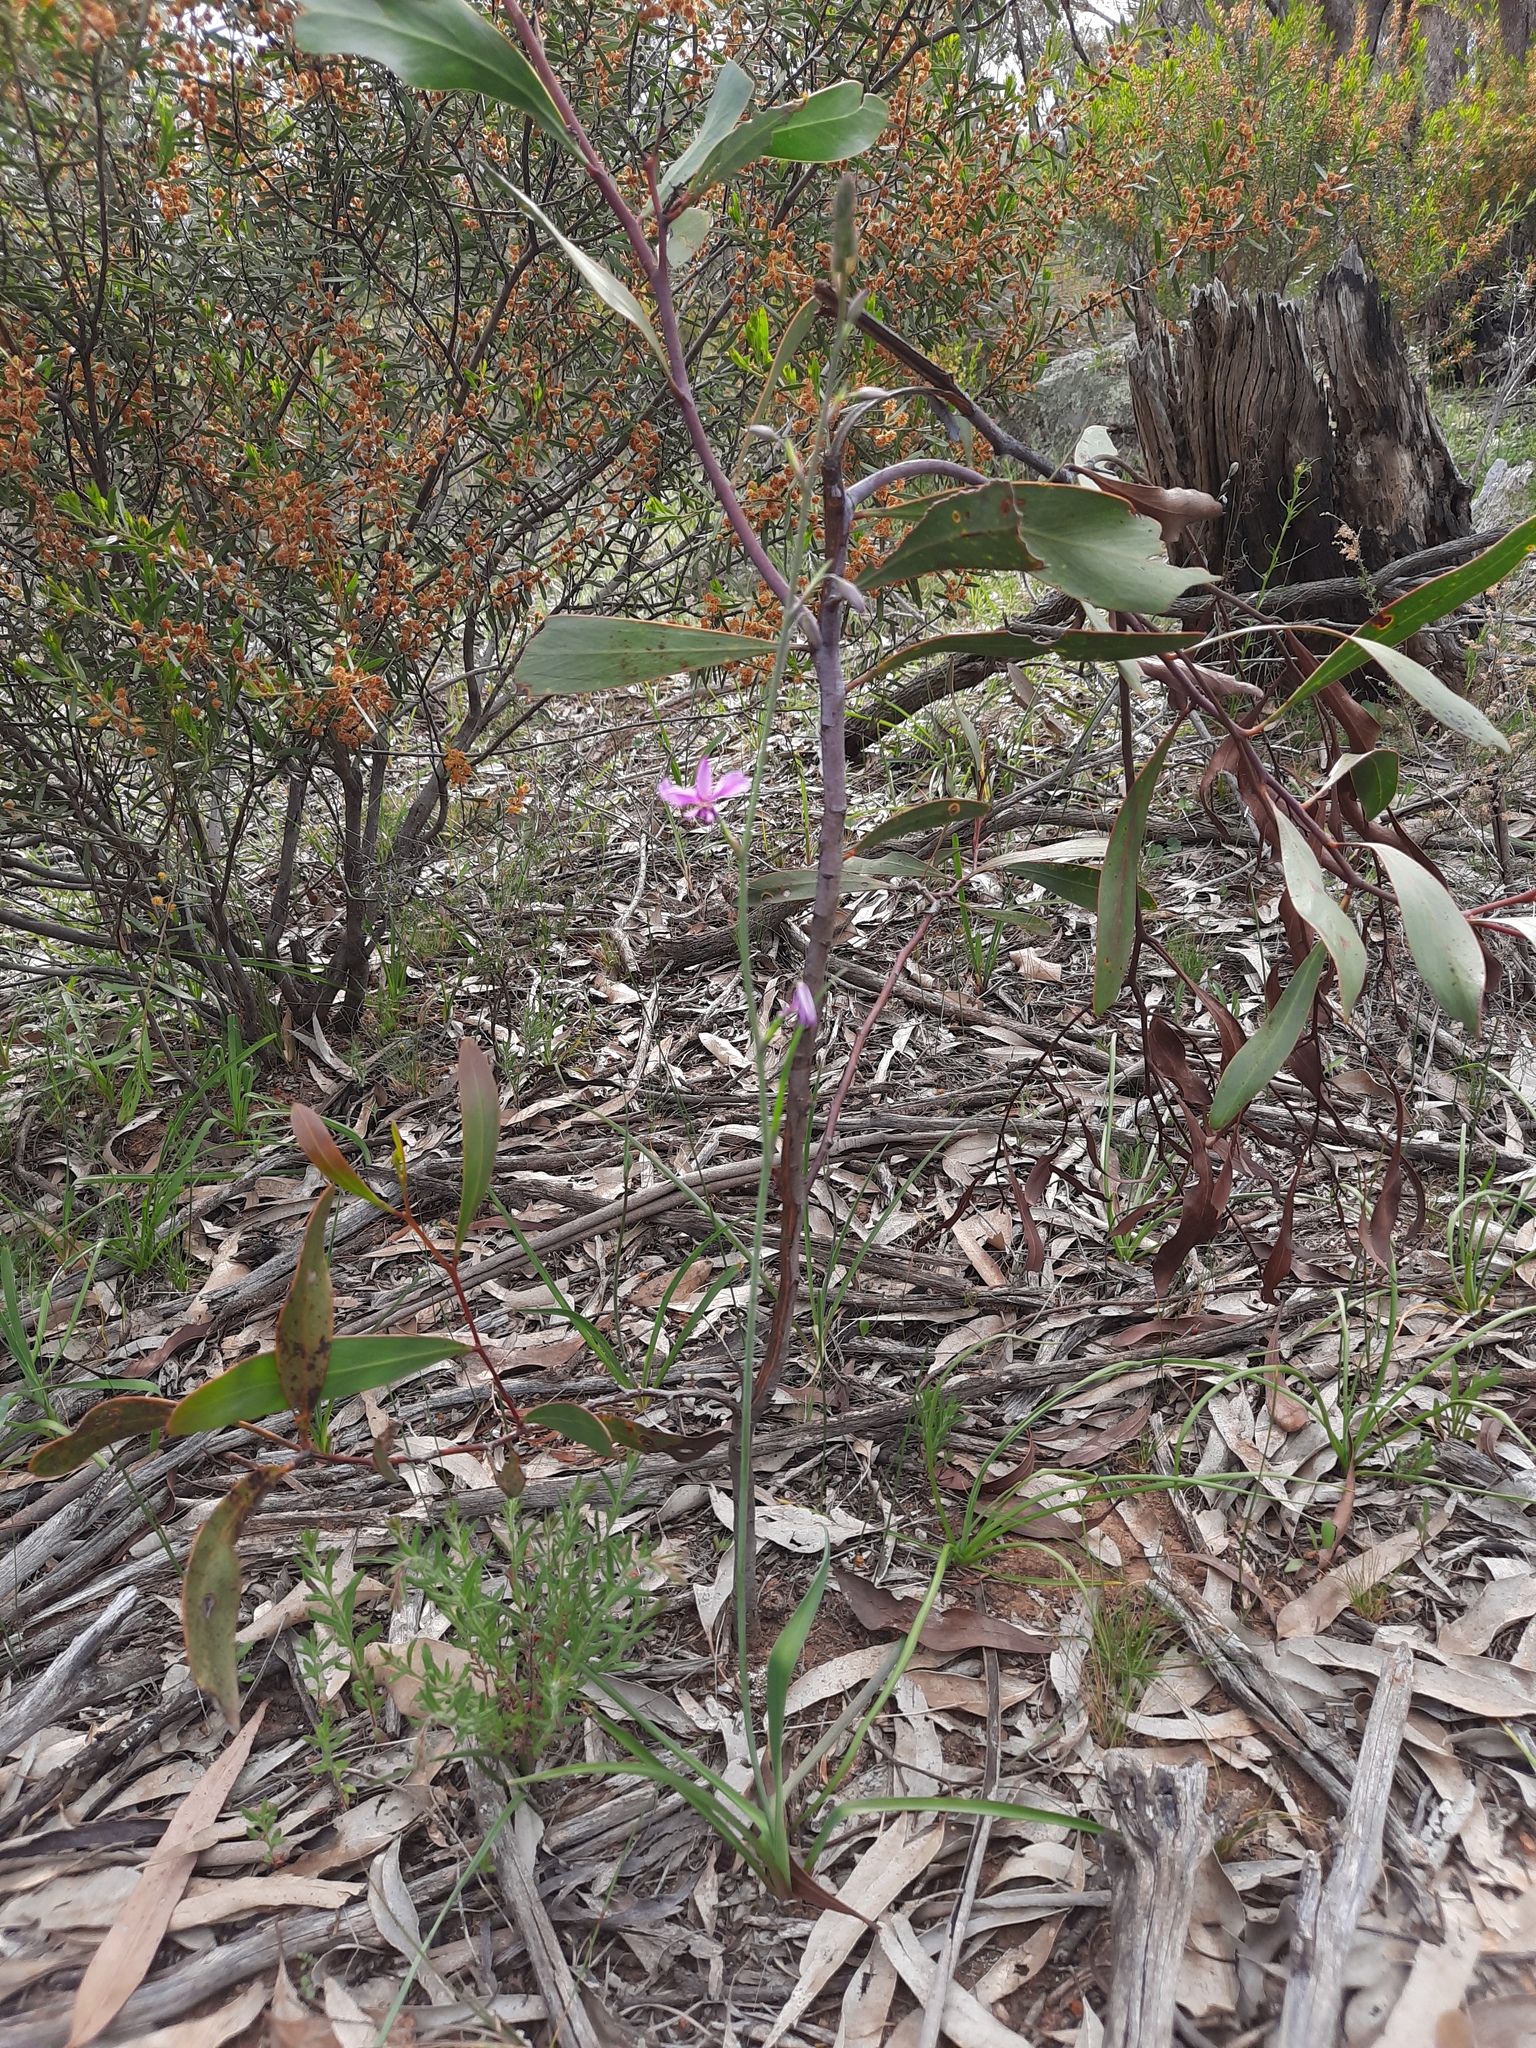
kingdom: Plantae
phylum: Tracheophyta
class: Liliopsida
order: Asparagales
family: Asparagaceae
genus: Arthropodium
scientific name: Arthropodium strictum
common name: Chocolate-lily
